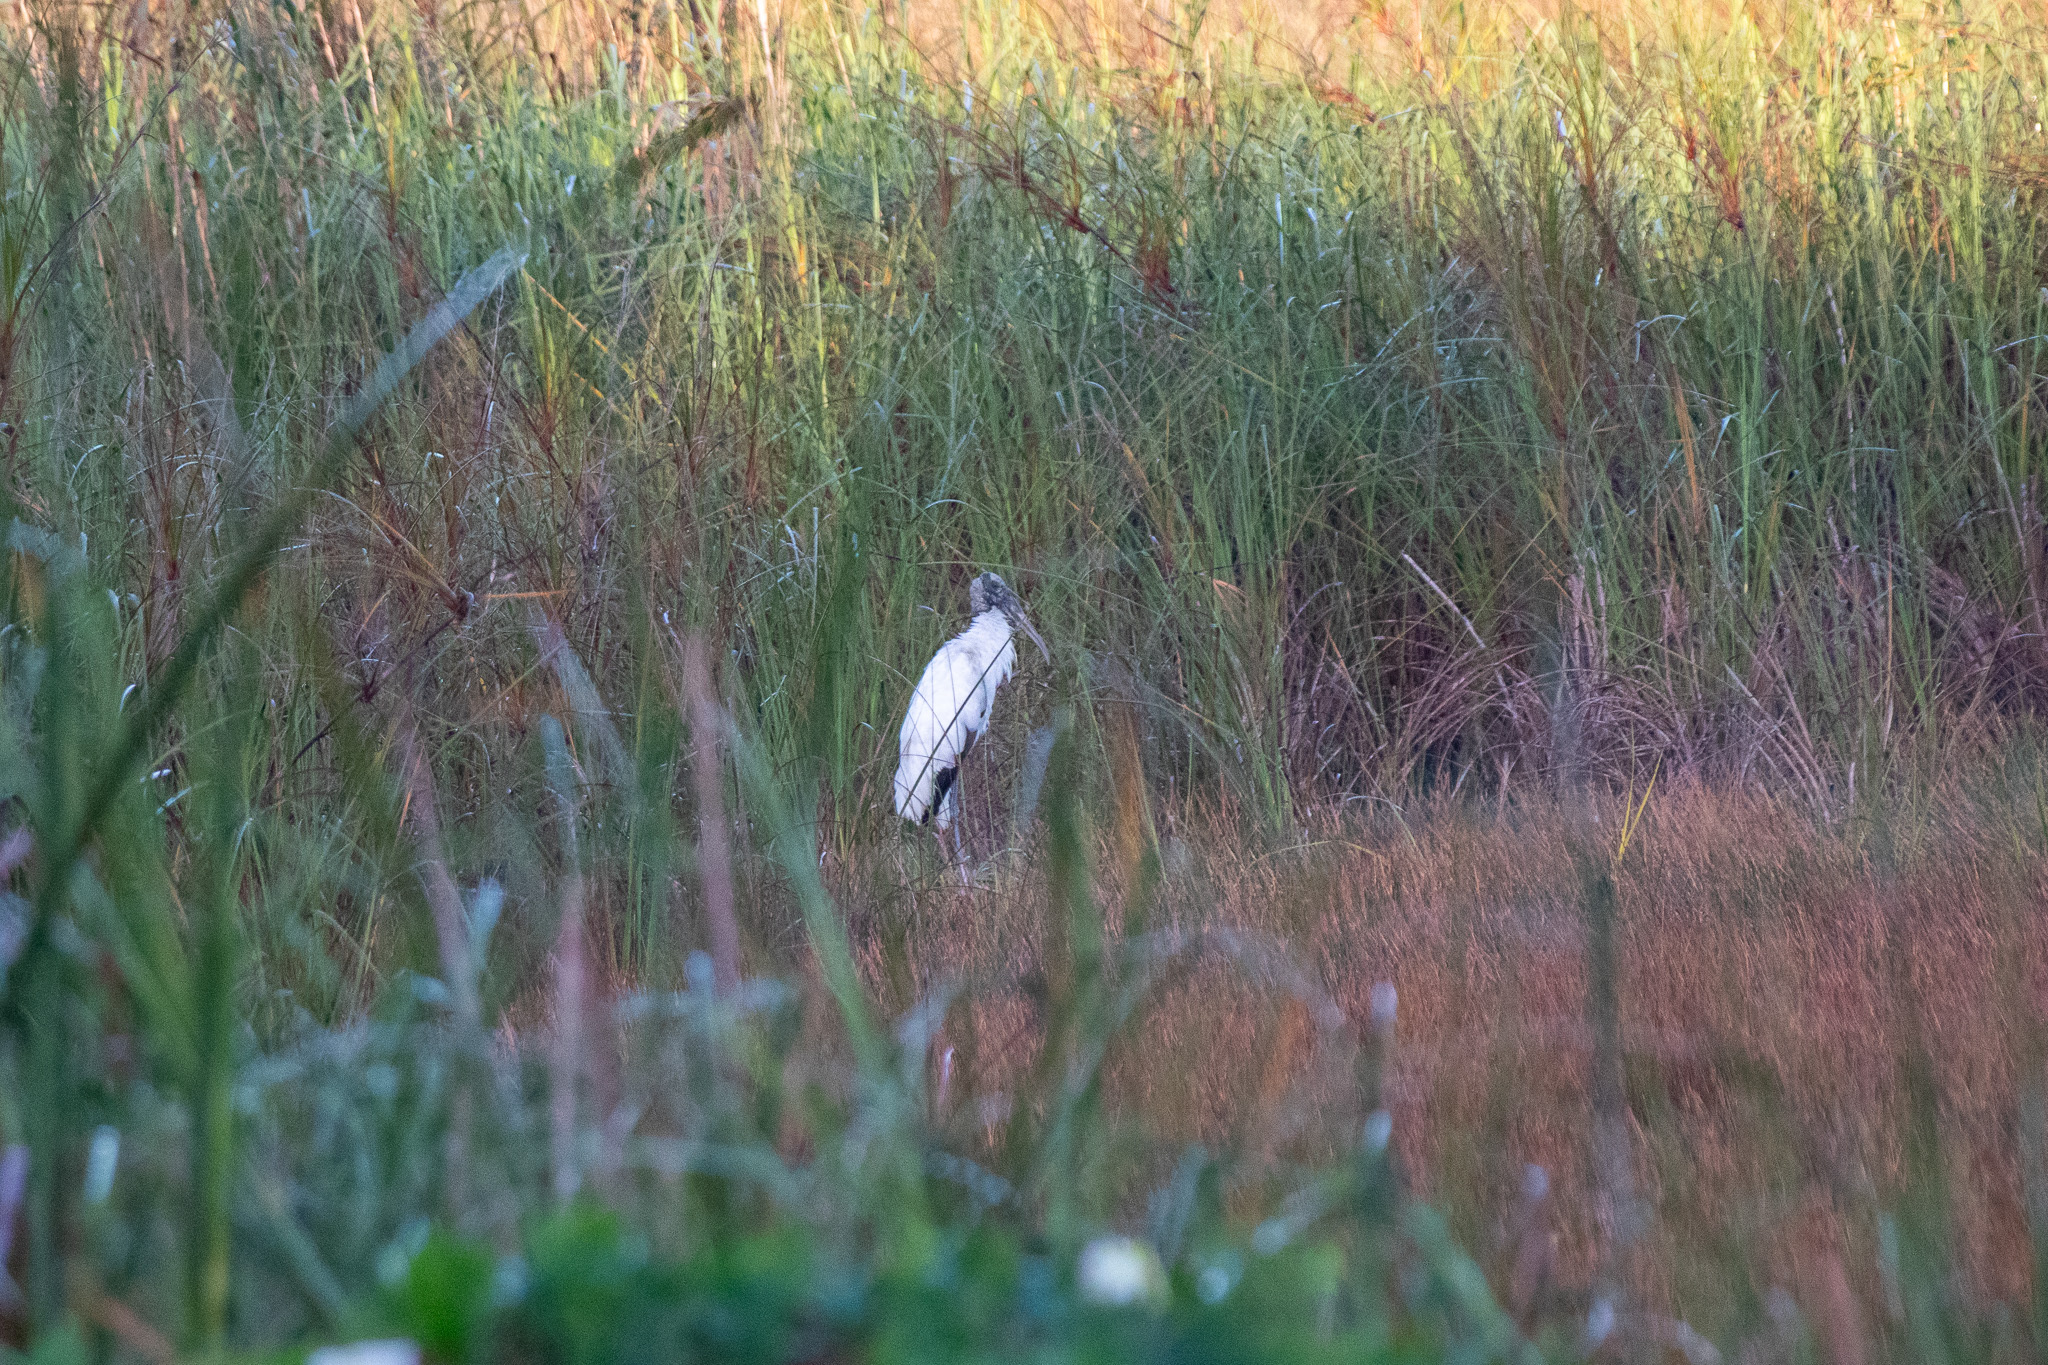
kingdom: Animalia
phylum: Chordata
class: Aves
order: Ciconiiformes
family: Ciconiidae
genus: Mycteria
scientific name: Mycteria americana
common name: Wood stork
